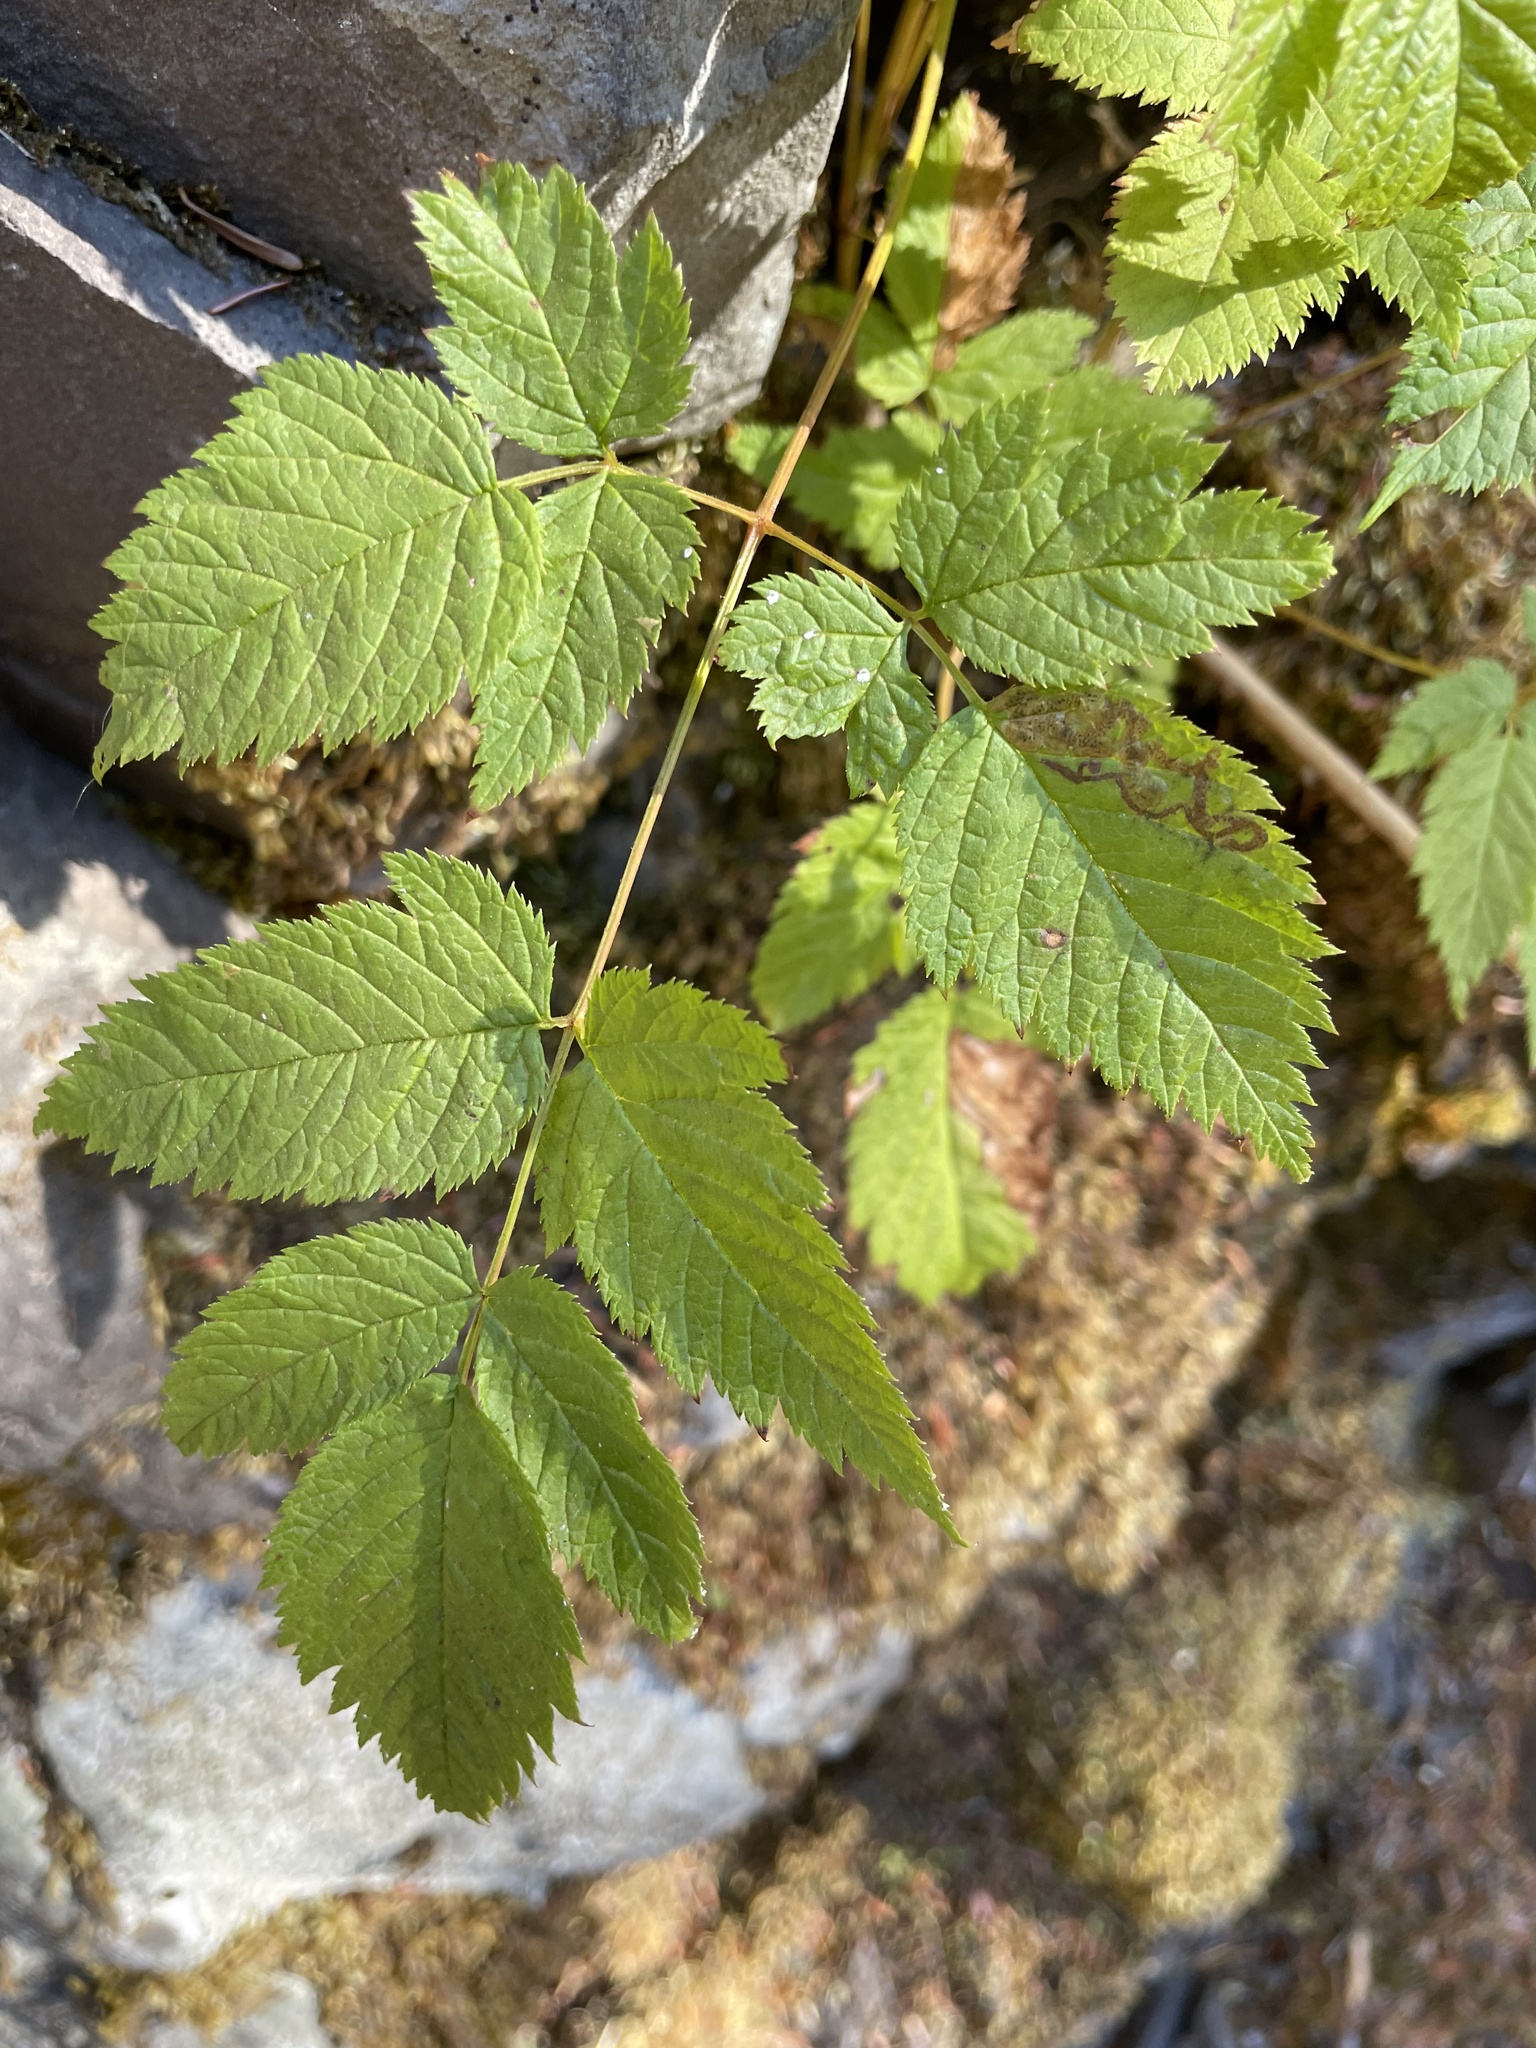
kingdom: Plantae
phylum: Tracheophyta
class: Magnoliopsida
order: Rosales
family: Rosaceae
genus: Aruncus
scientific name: Aruncus dioicus
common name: Buck's-beard
